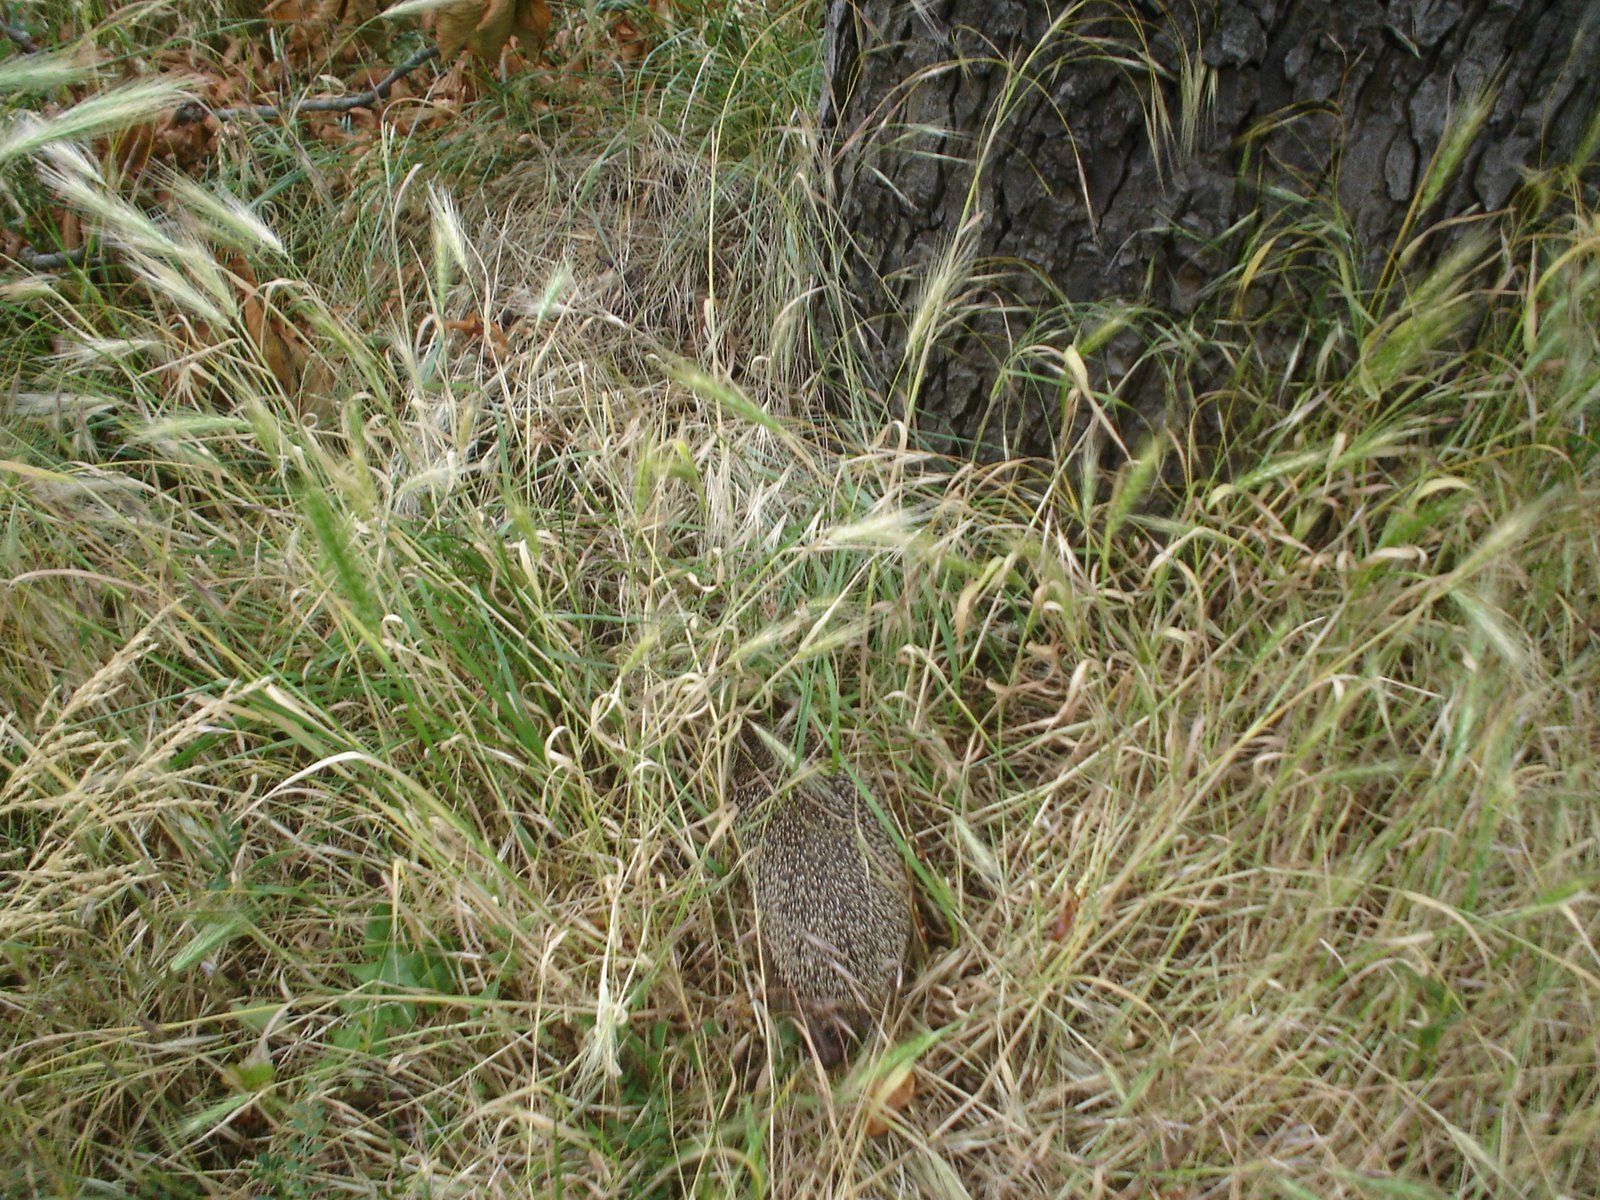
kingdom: Animalia
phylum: Chordata
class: Mammalia
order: Erinaceomorpha
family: Erinaceidae
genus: Erinaceus
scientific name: Erinaceus europaeus
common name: West european hedgehog
